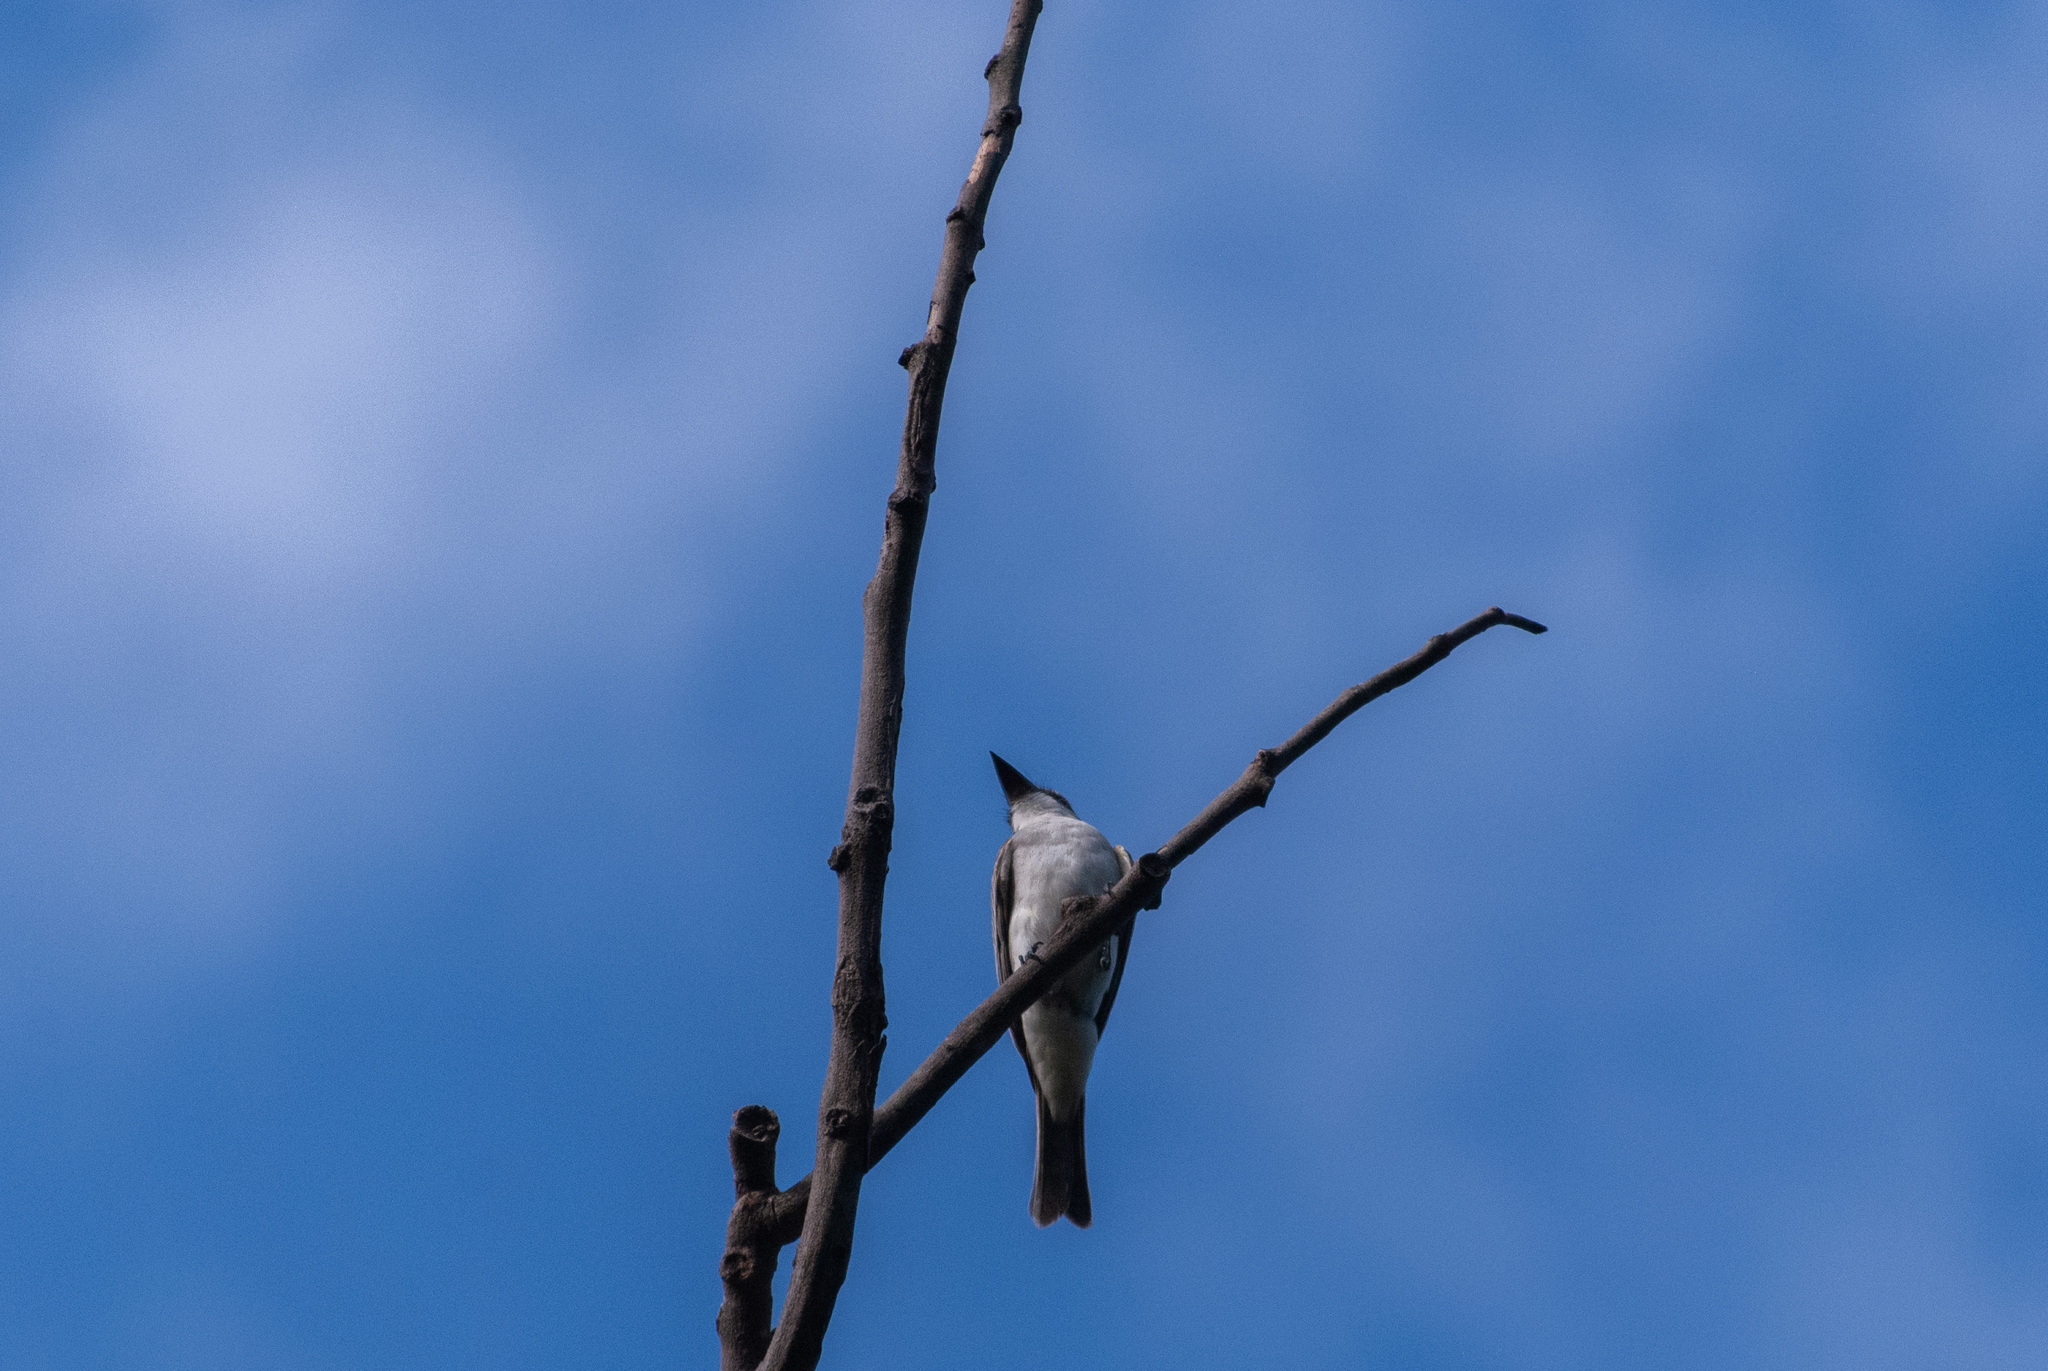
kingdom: Animalia
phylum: Chordata
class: Aves
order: Passeriformes
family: Tyrannidae
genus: Tyrannus
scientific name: Tyrannus dominicensis
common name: Gray kingbird
